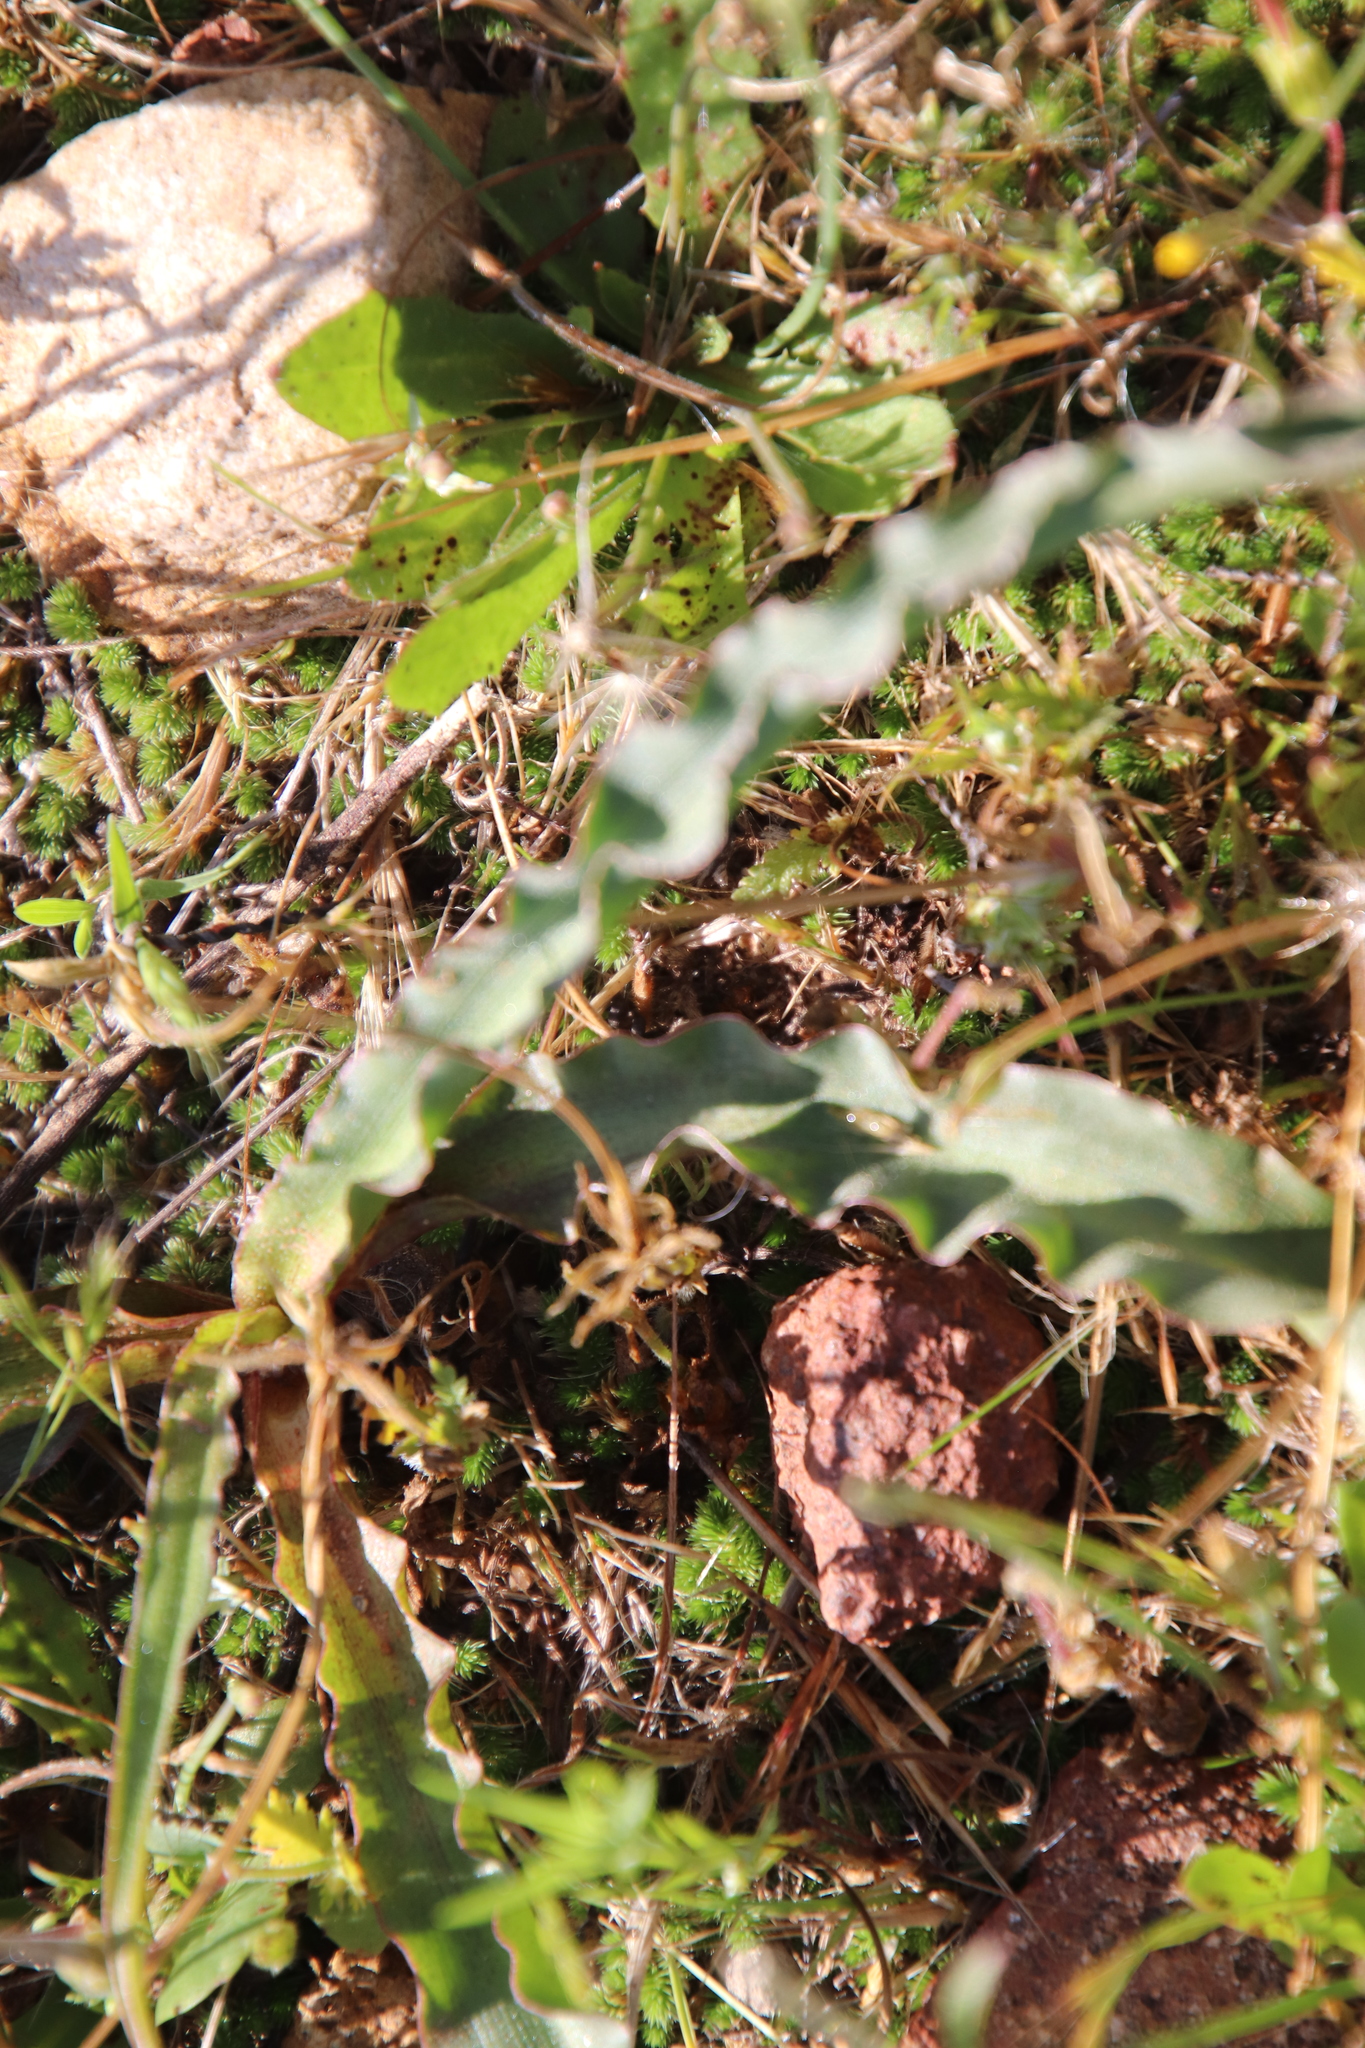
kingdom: Plantae
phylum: Tracheophyta
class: Liliopsida
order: Asparagales
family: Asparagaceae
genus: Hooveria
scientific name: Hooveria parviflora
